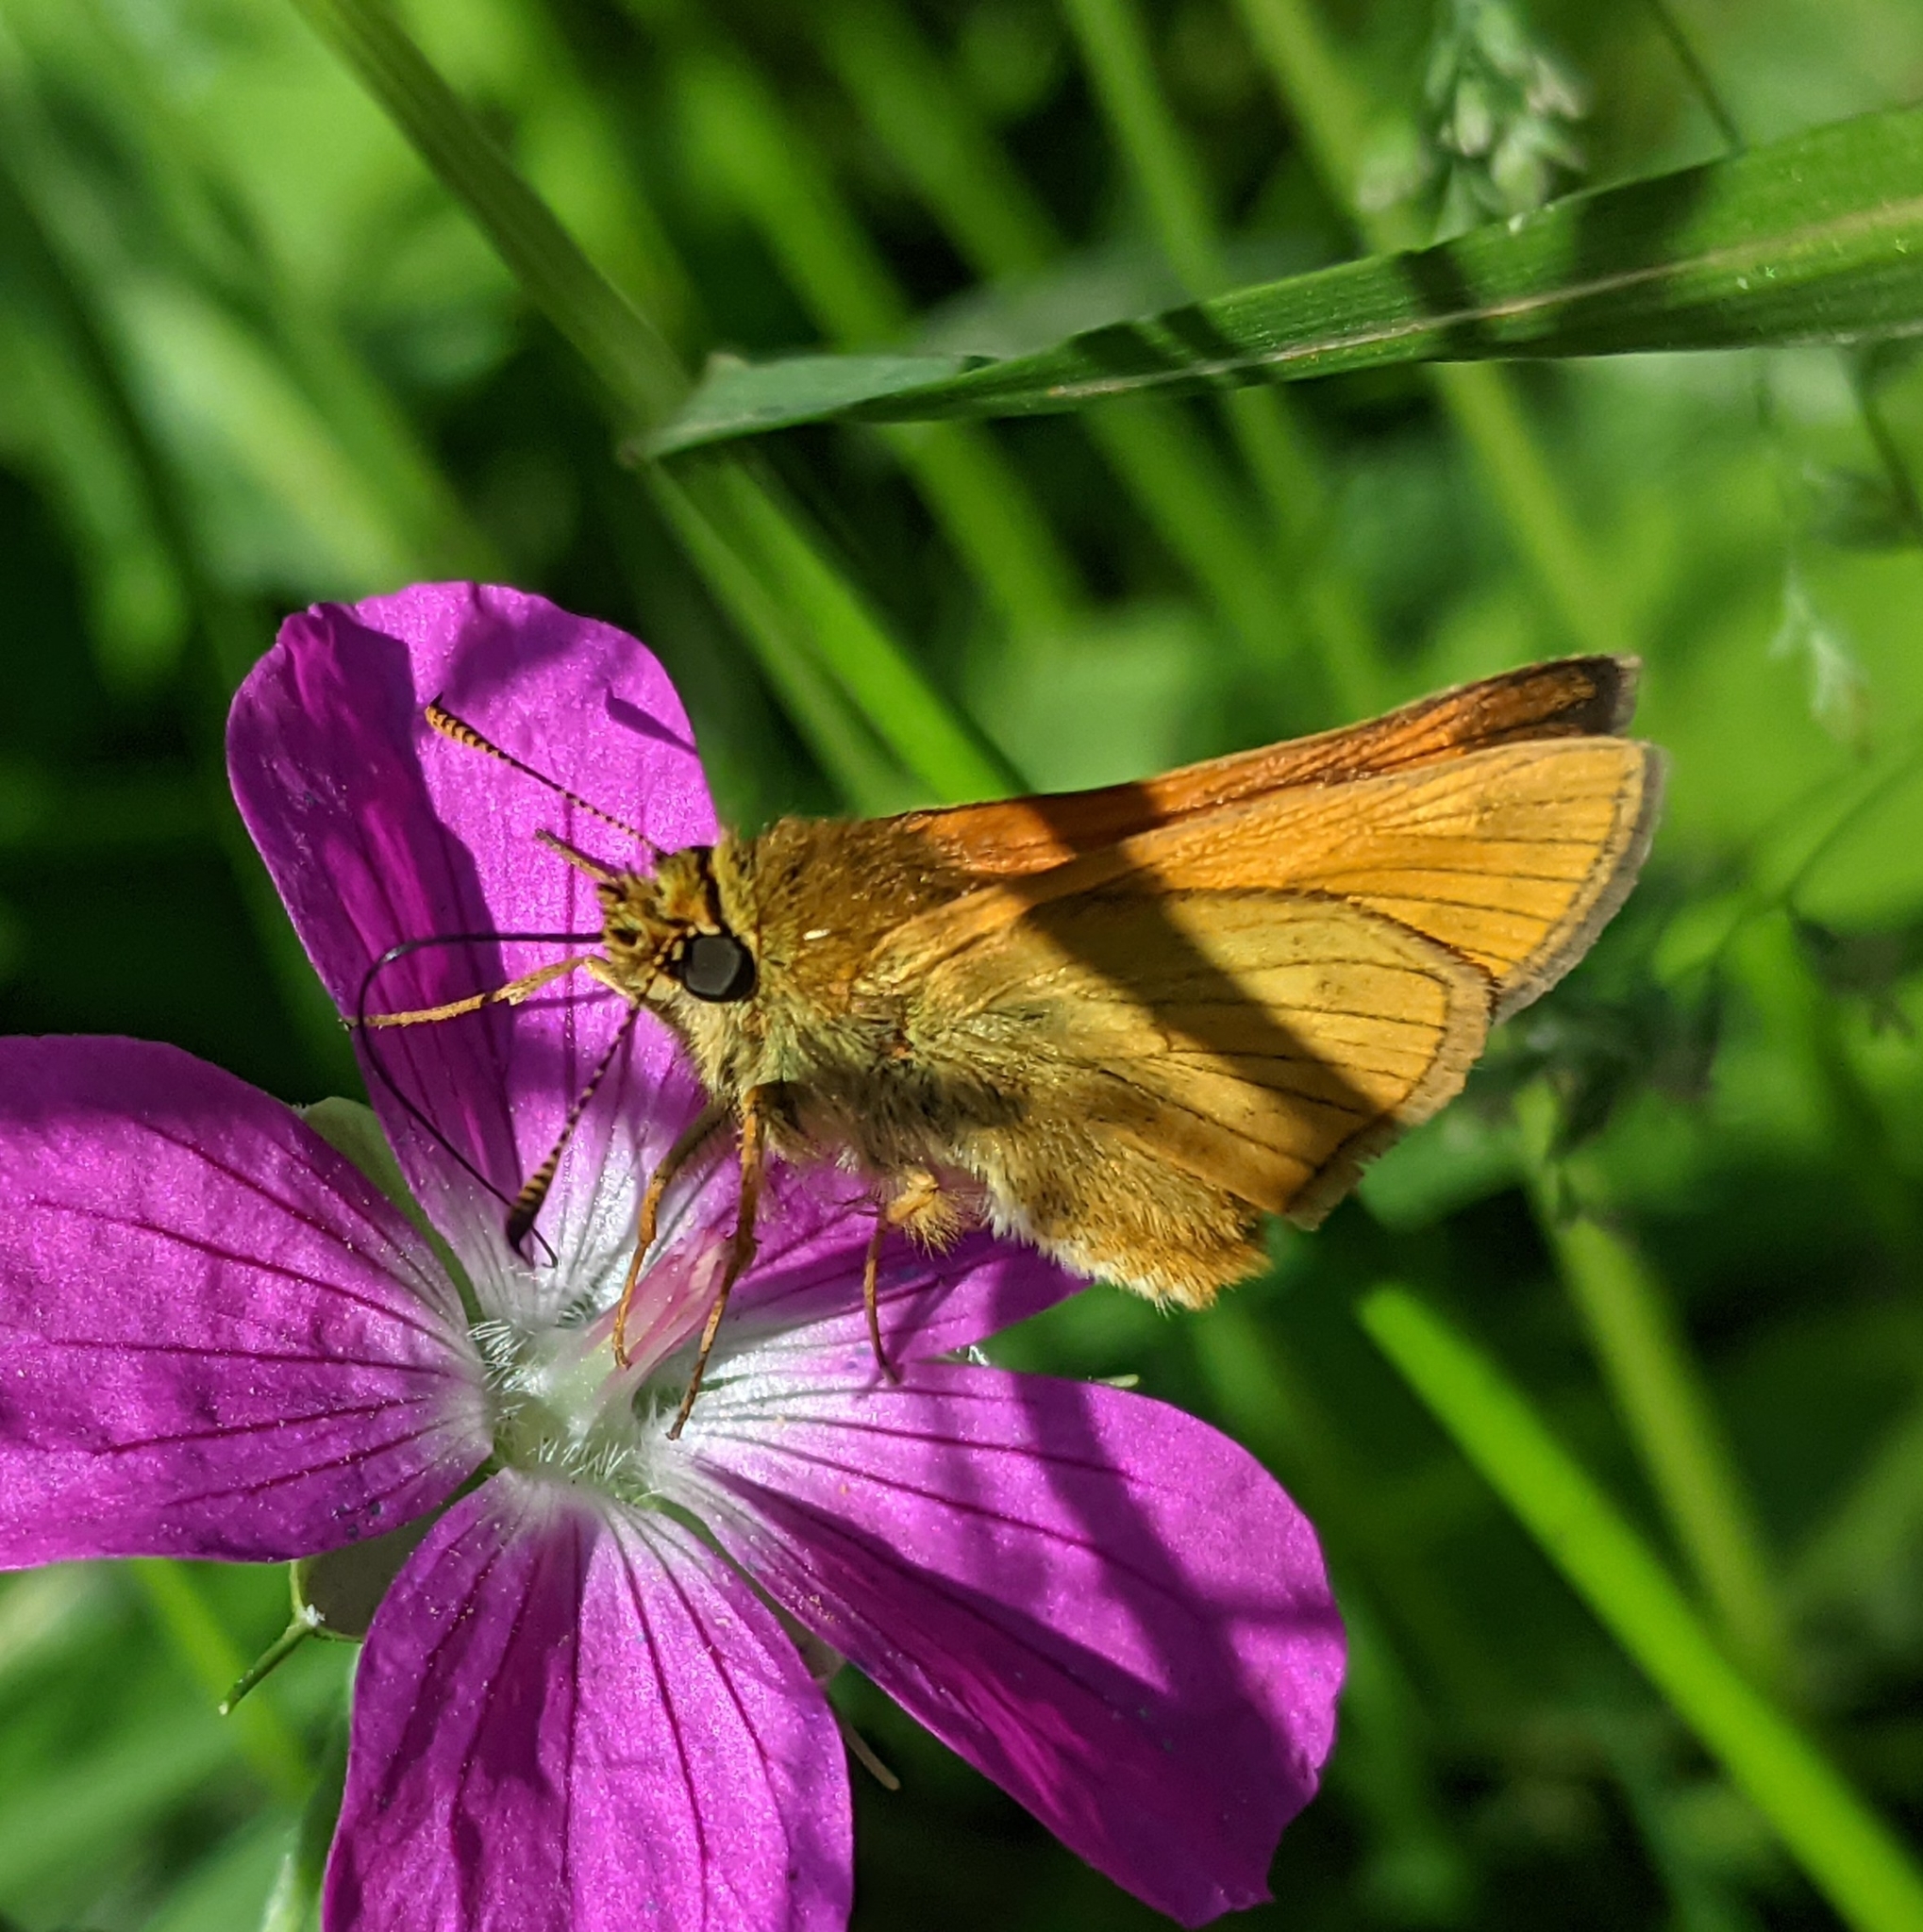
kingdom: Animalia
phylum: Arthropoda
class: Insecta
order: Lepidoptera
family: Hesperiidae
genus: Ochlodes
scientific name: Ochlodes venata
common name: Large skipper
